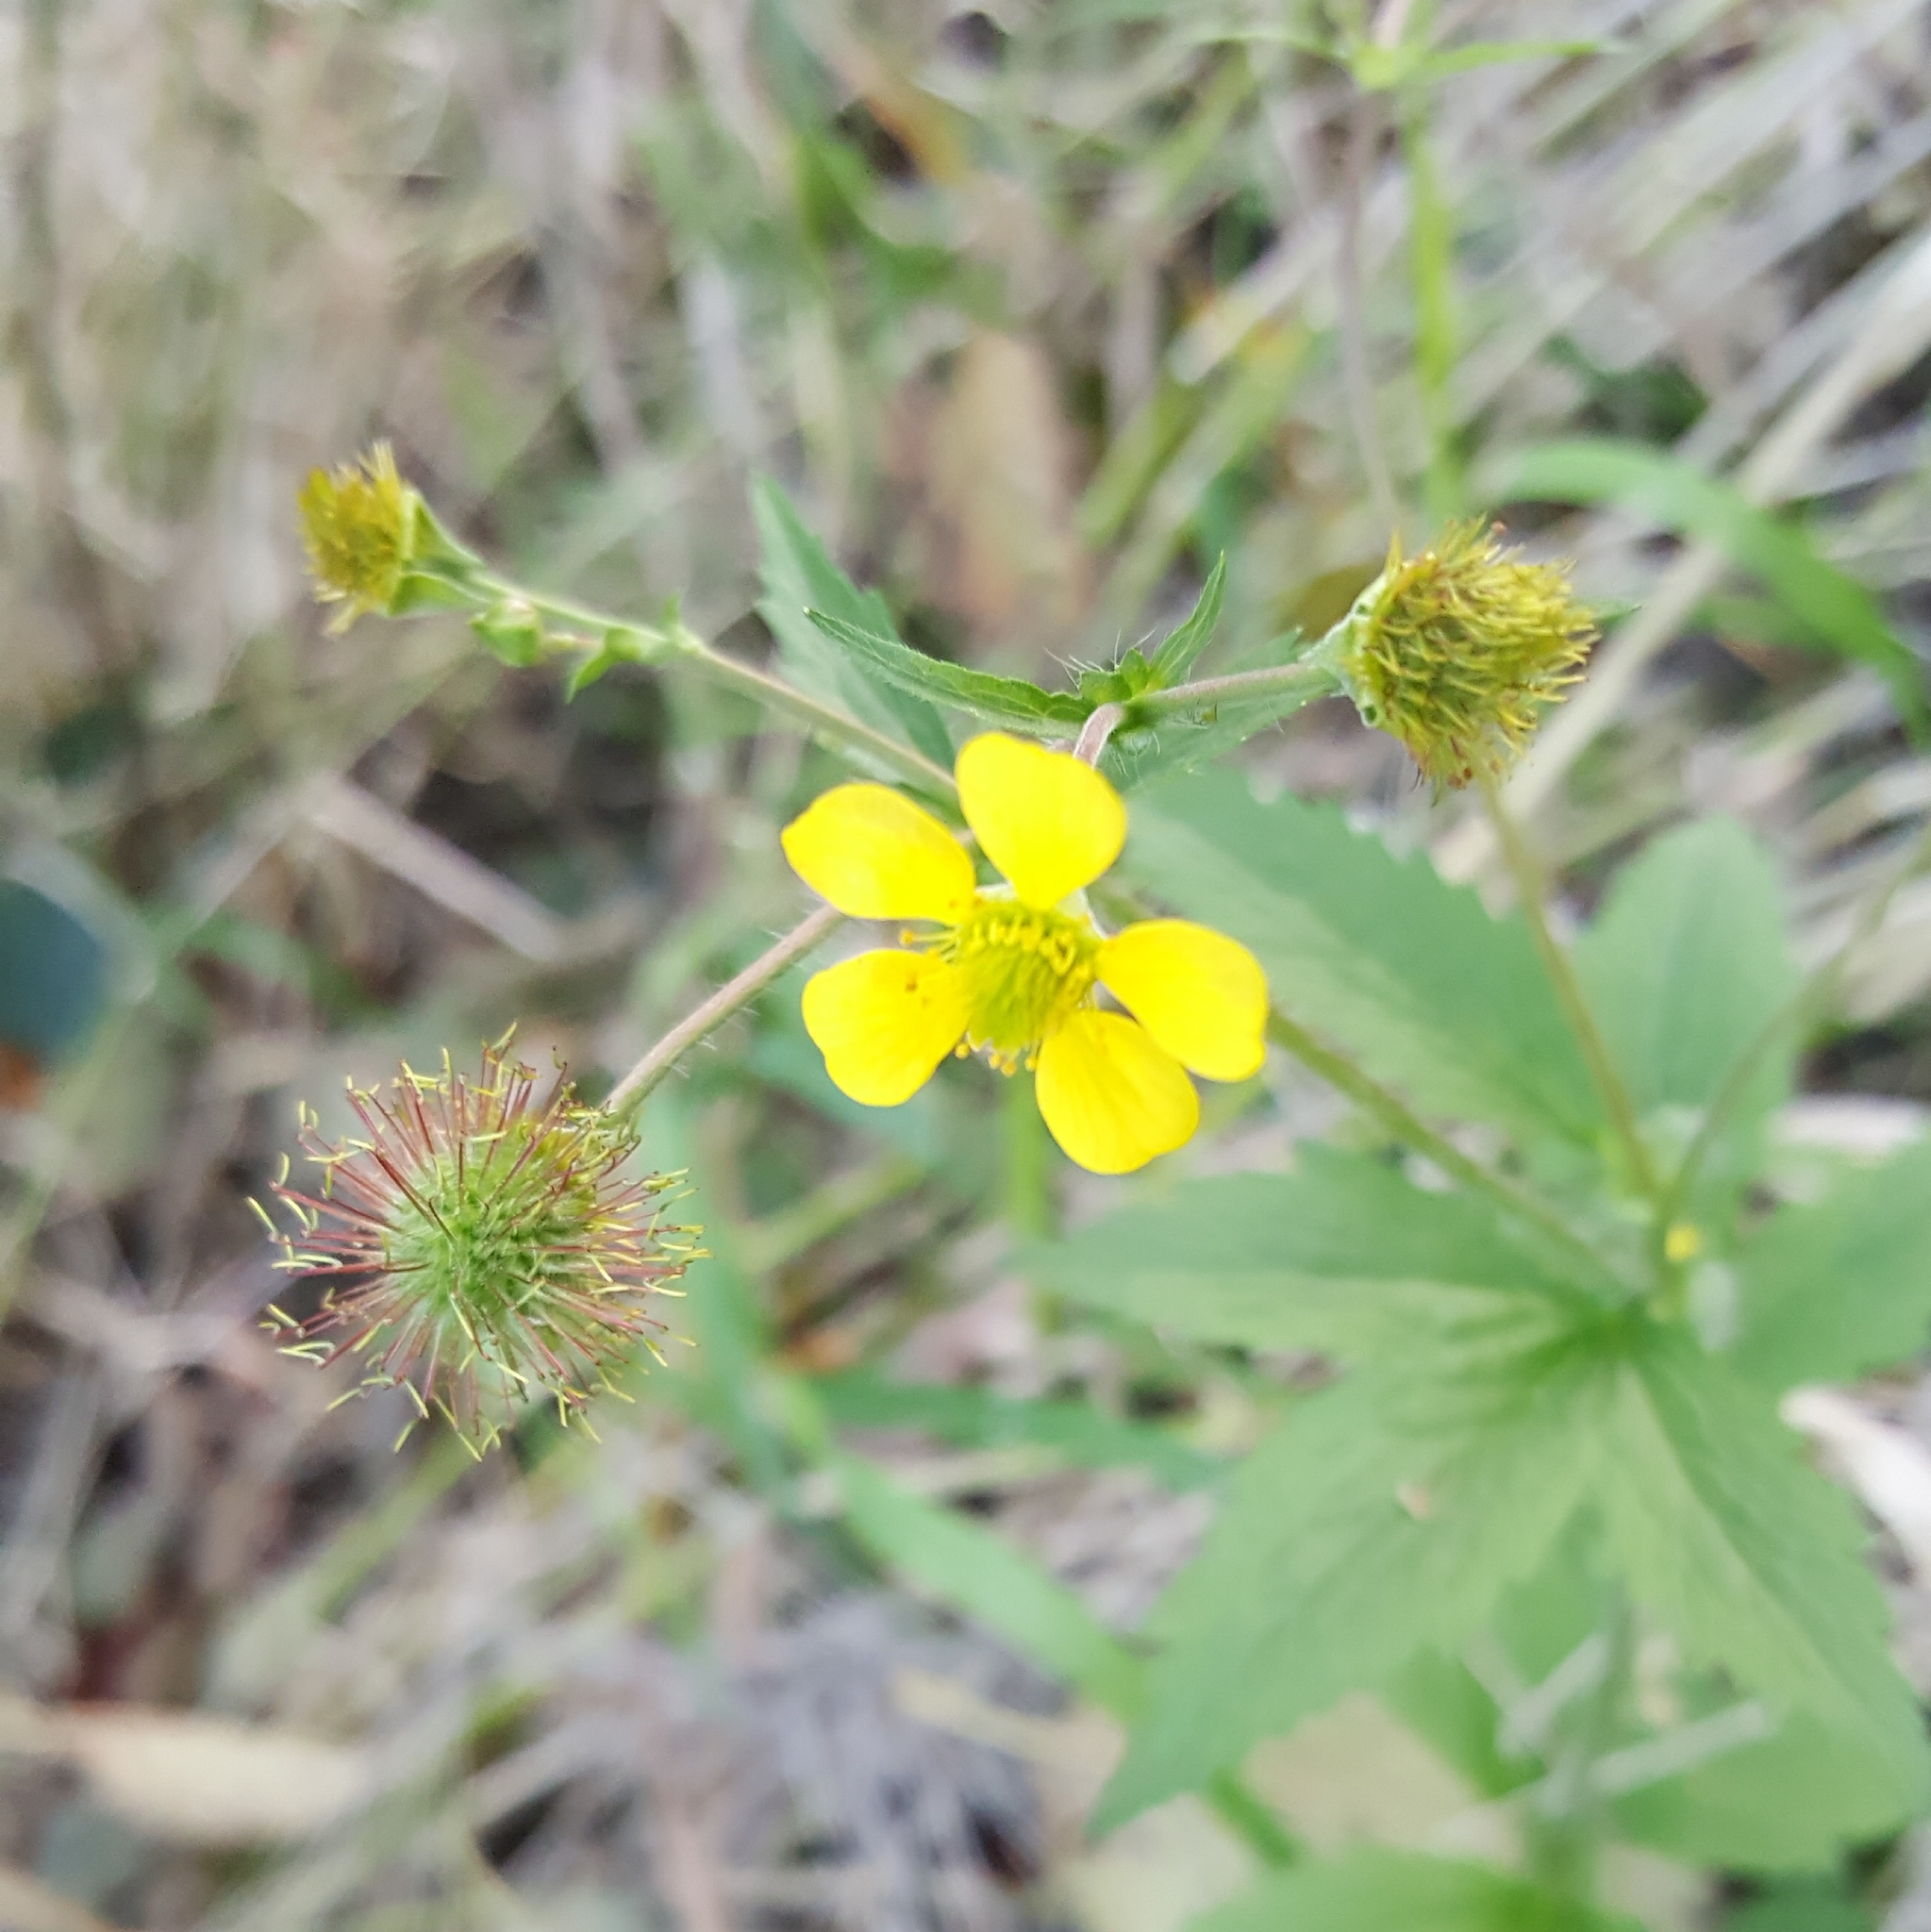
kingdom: Plantae
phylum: Tracheophyta
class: Magnoliopsida
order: Rosales
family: Rosaceae
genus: Geum
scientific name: Geum macrophyllum
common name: Large-leaved avens
